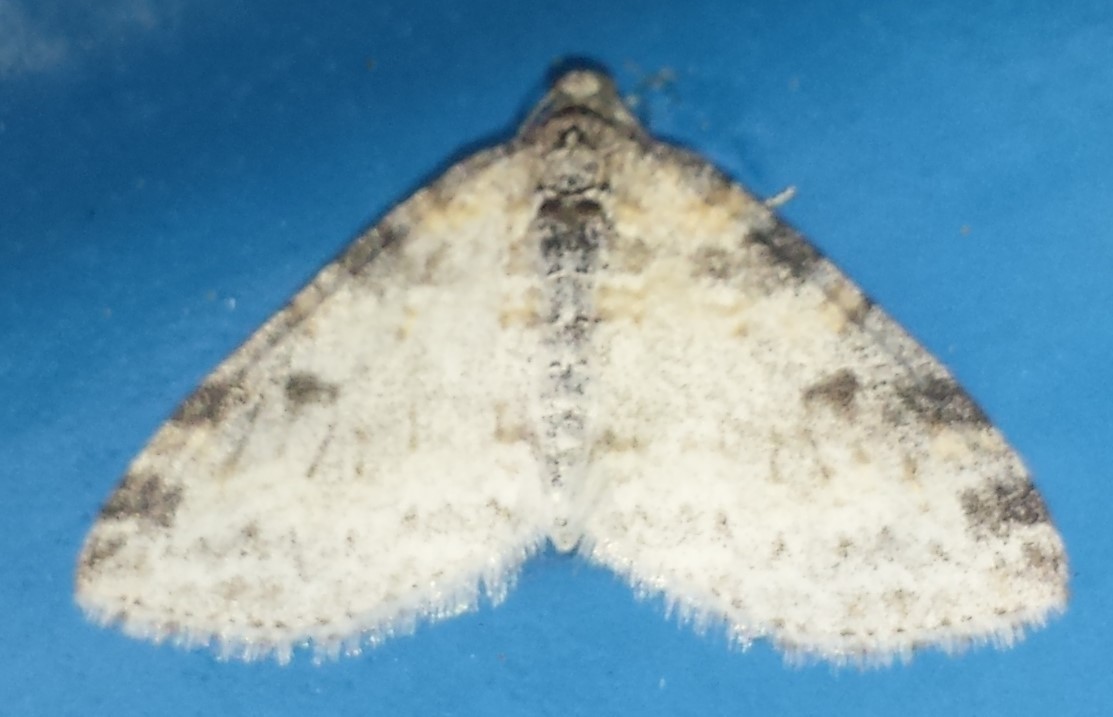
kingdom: Animalia
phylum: Arthropoda
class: Insecta
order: Lepidoptera
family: Geometridae
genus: Lobophora
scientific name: Lobophora nivigerata
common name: Powdered bigwing
